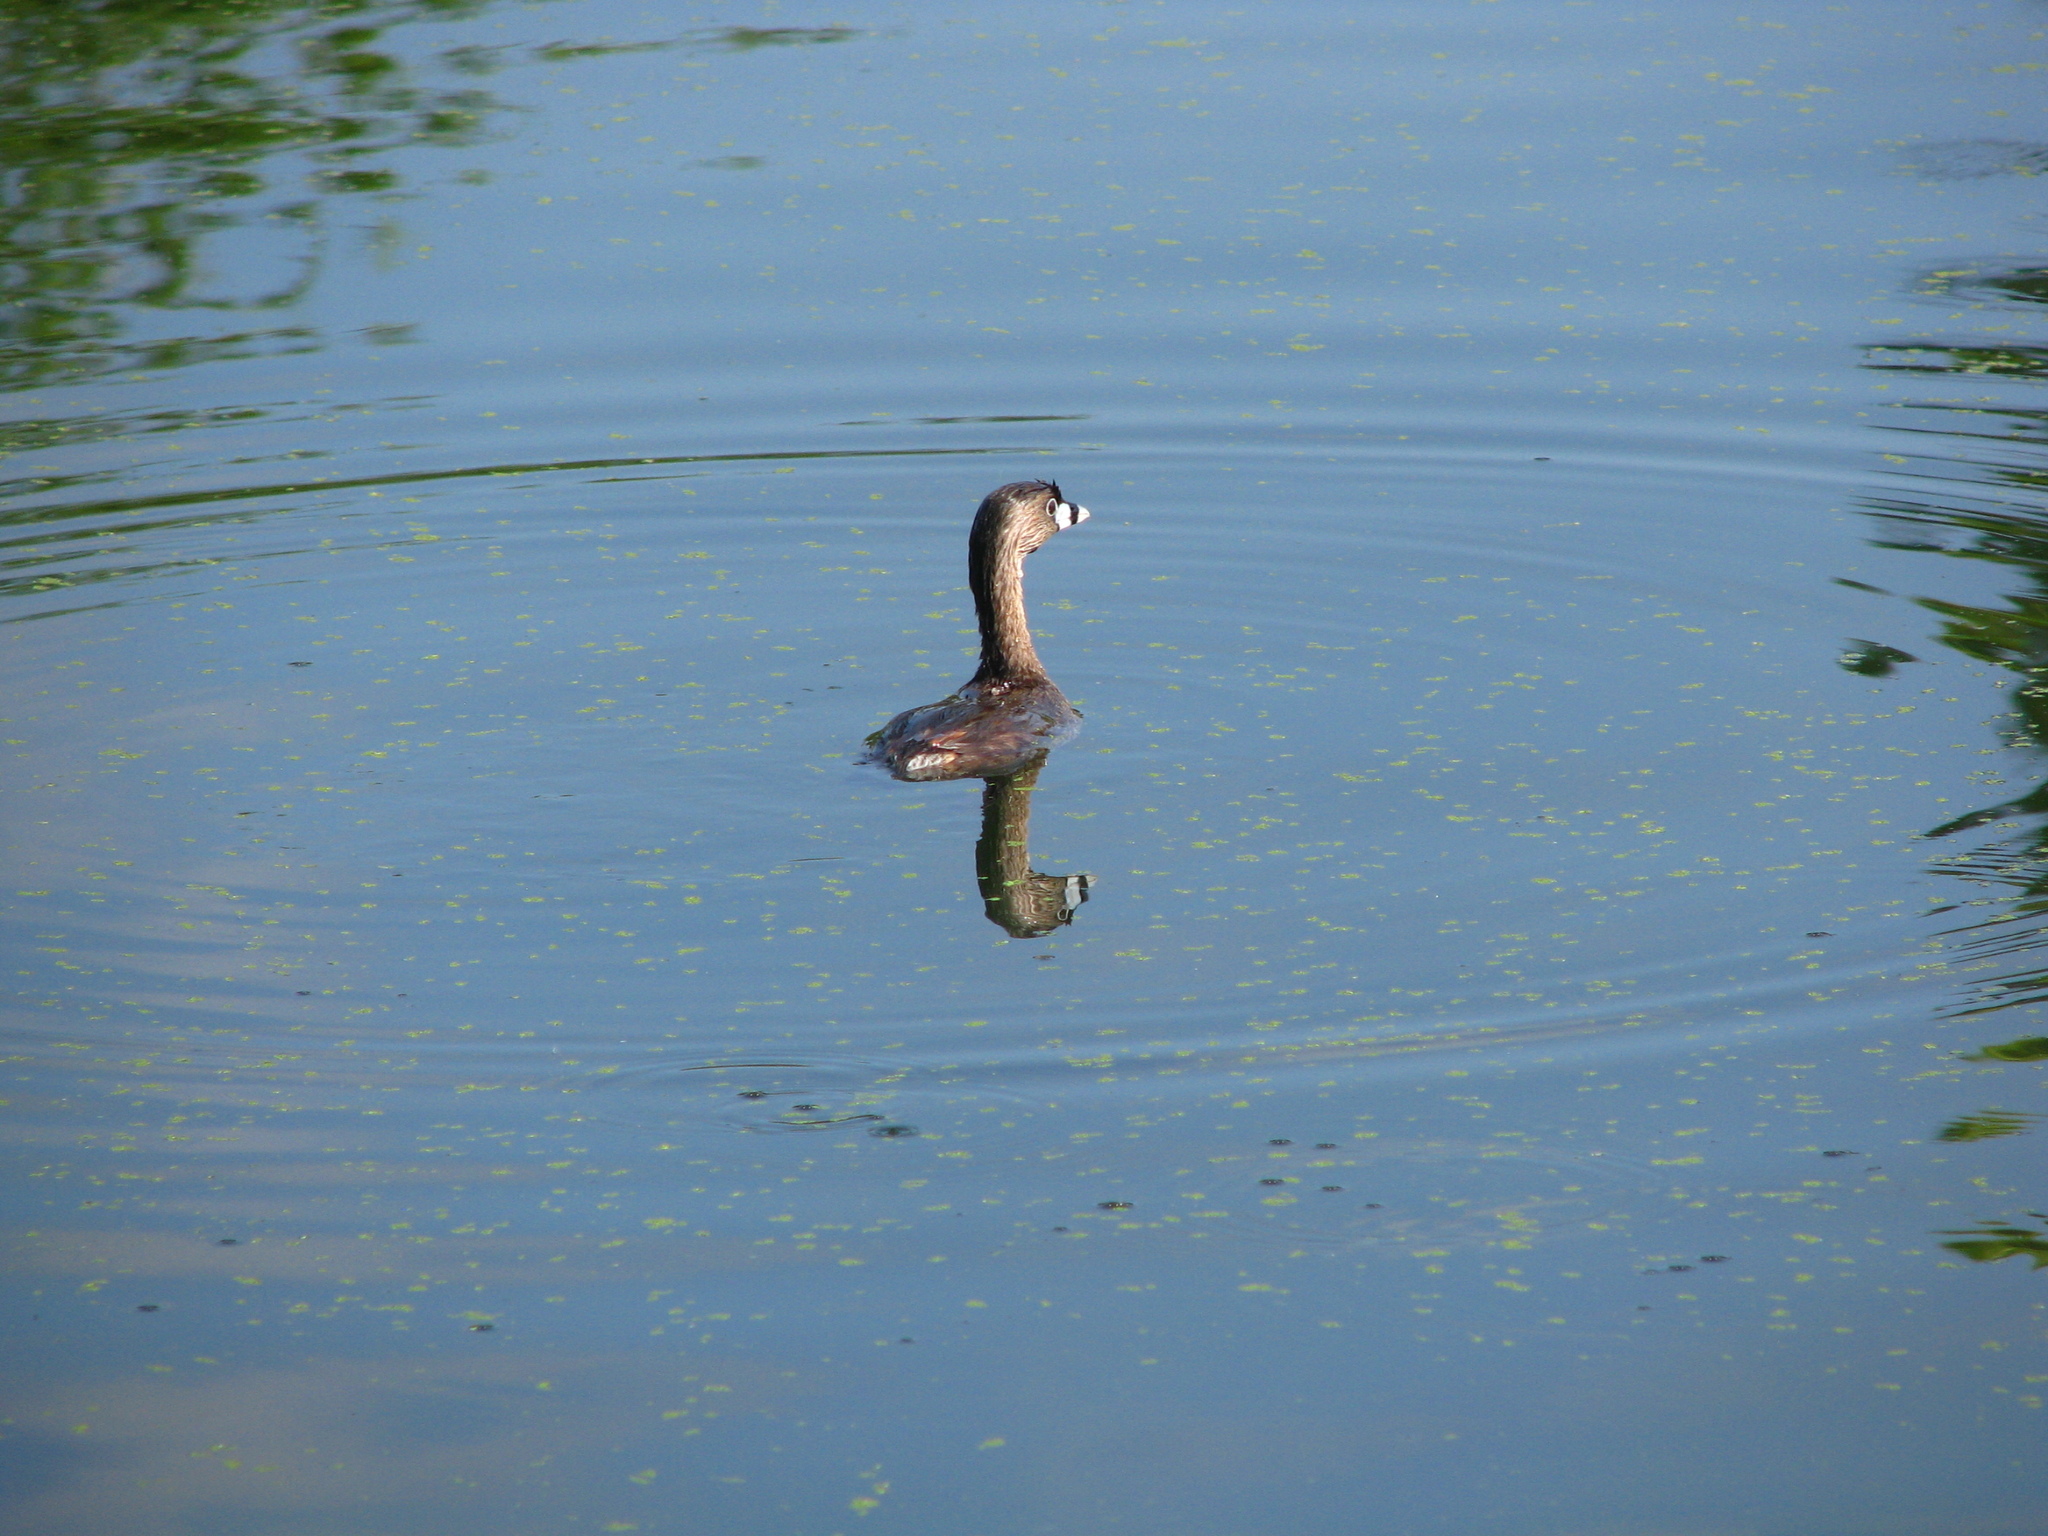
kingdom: Animalia
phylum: Chordata
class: Aves
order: Podicipediformes
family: Podicipedidae
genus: Podilymbus
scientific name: Podilymbus podiceps
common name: Pied-billed grebe
